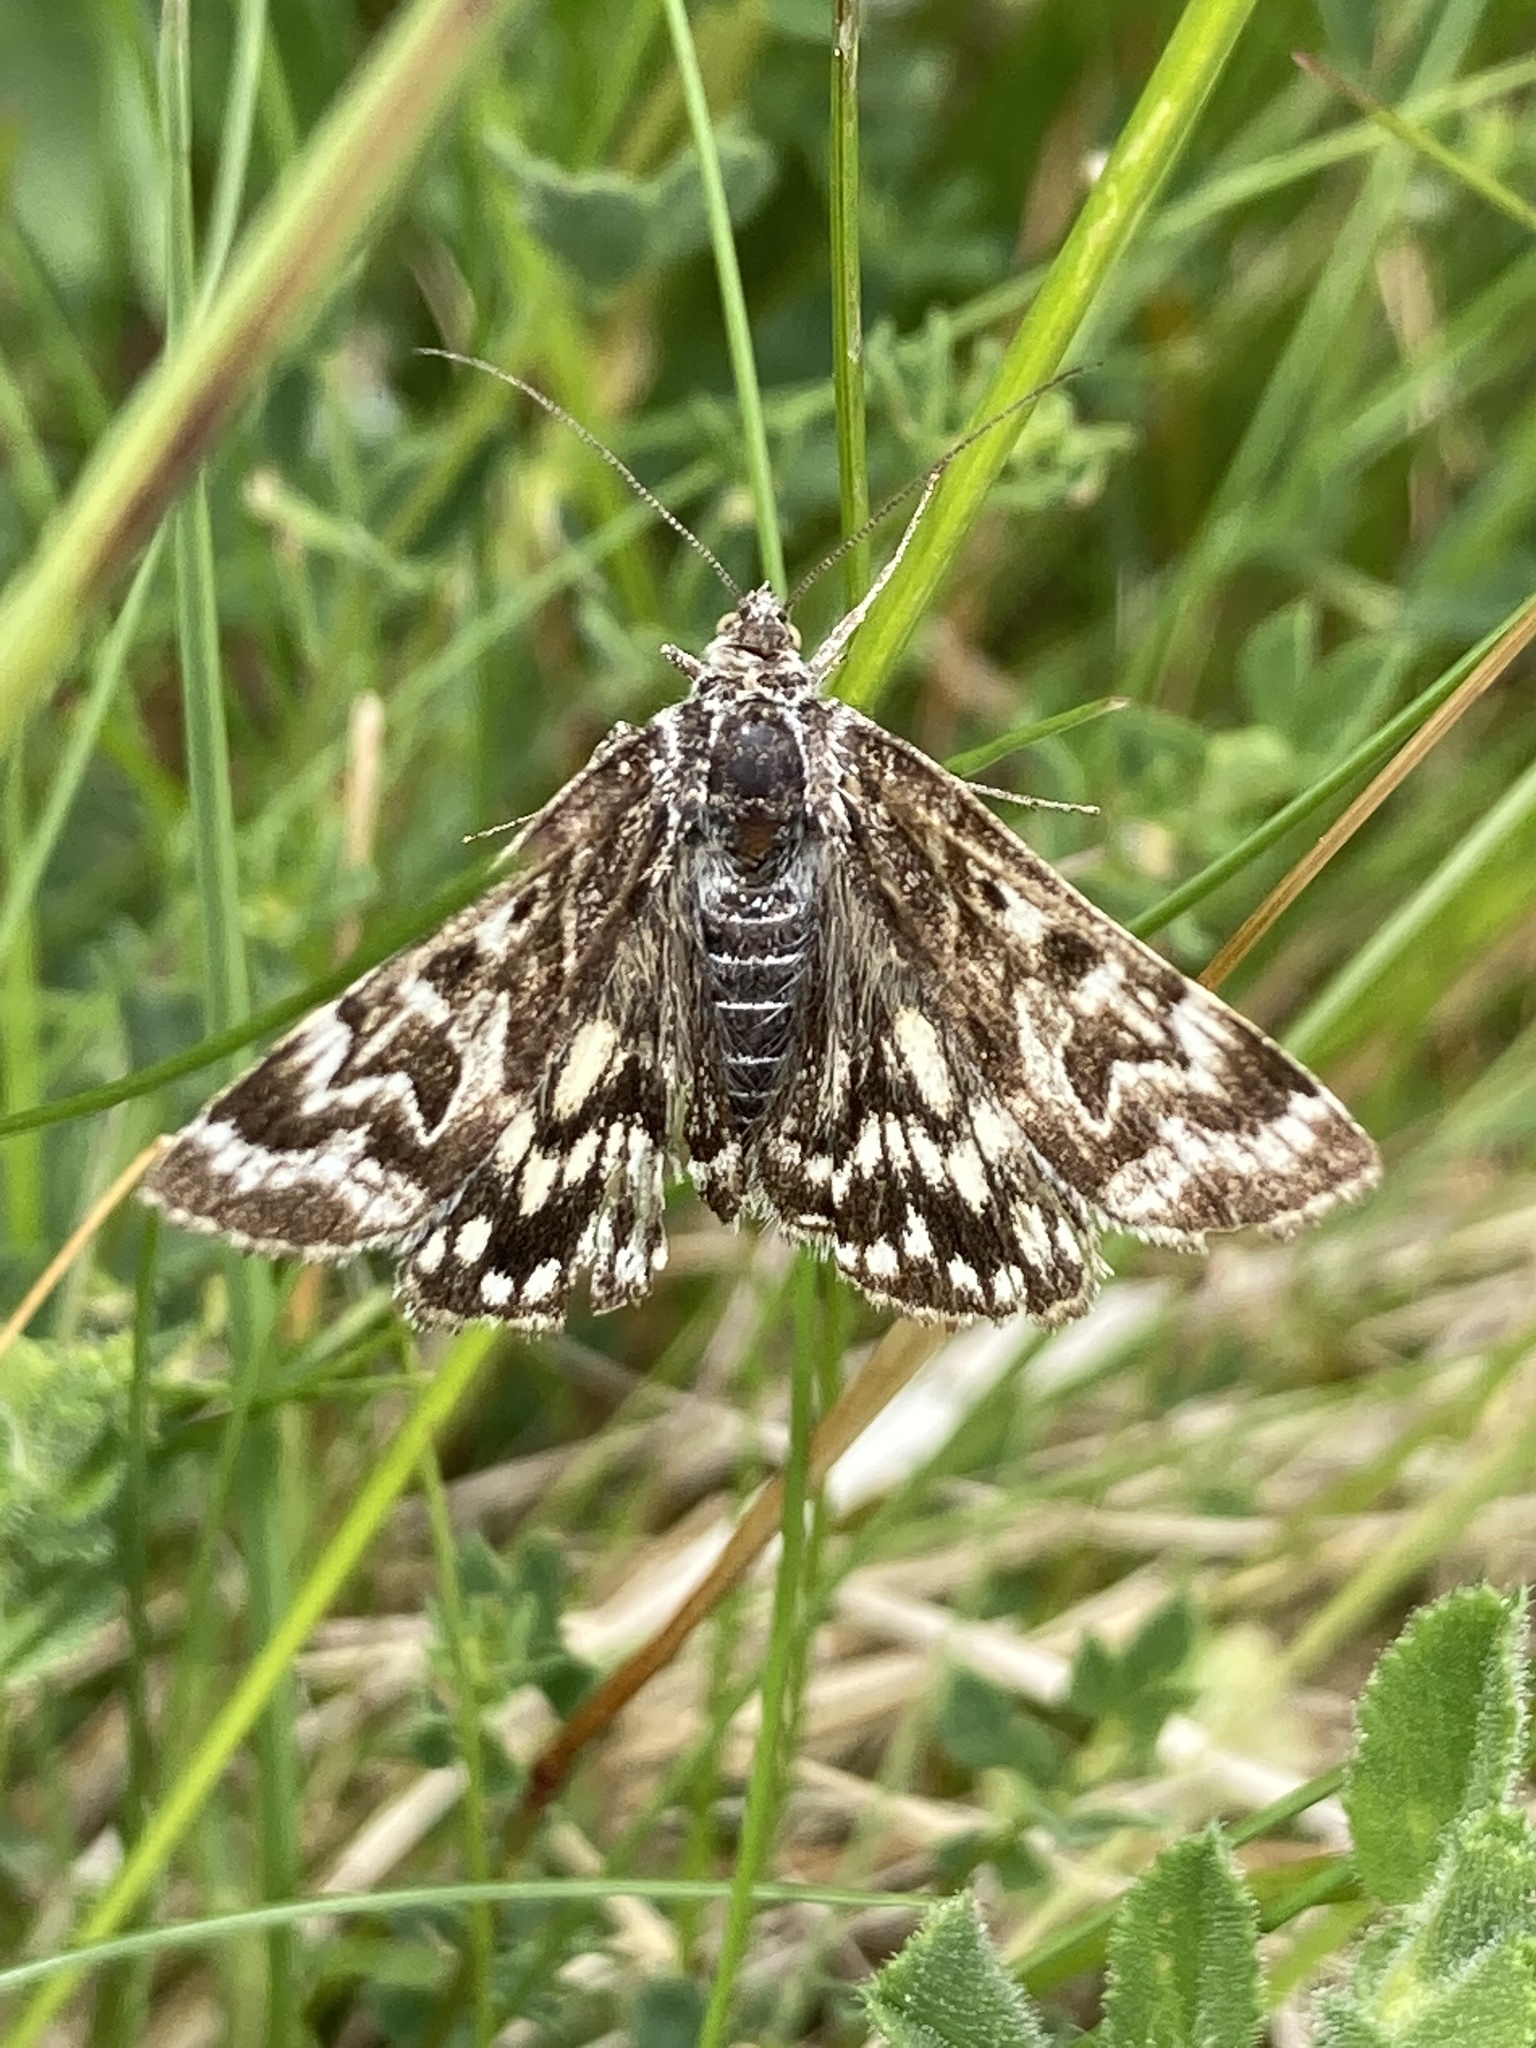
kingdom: Animalia
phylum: Arthropoda
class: Insecta
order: Lepidoptera
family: Erebidae
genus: Callistege
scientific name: Callistege mi
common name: Mother shipton
